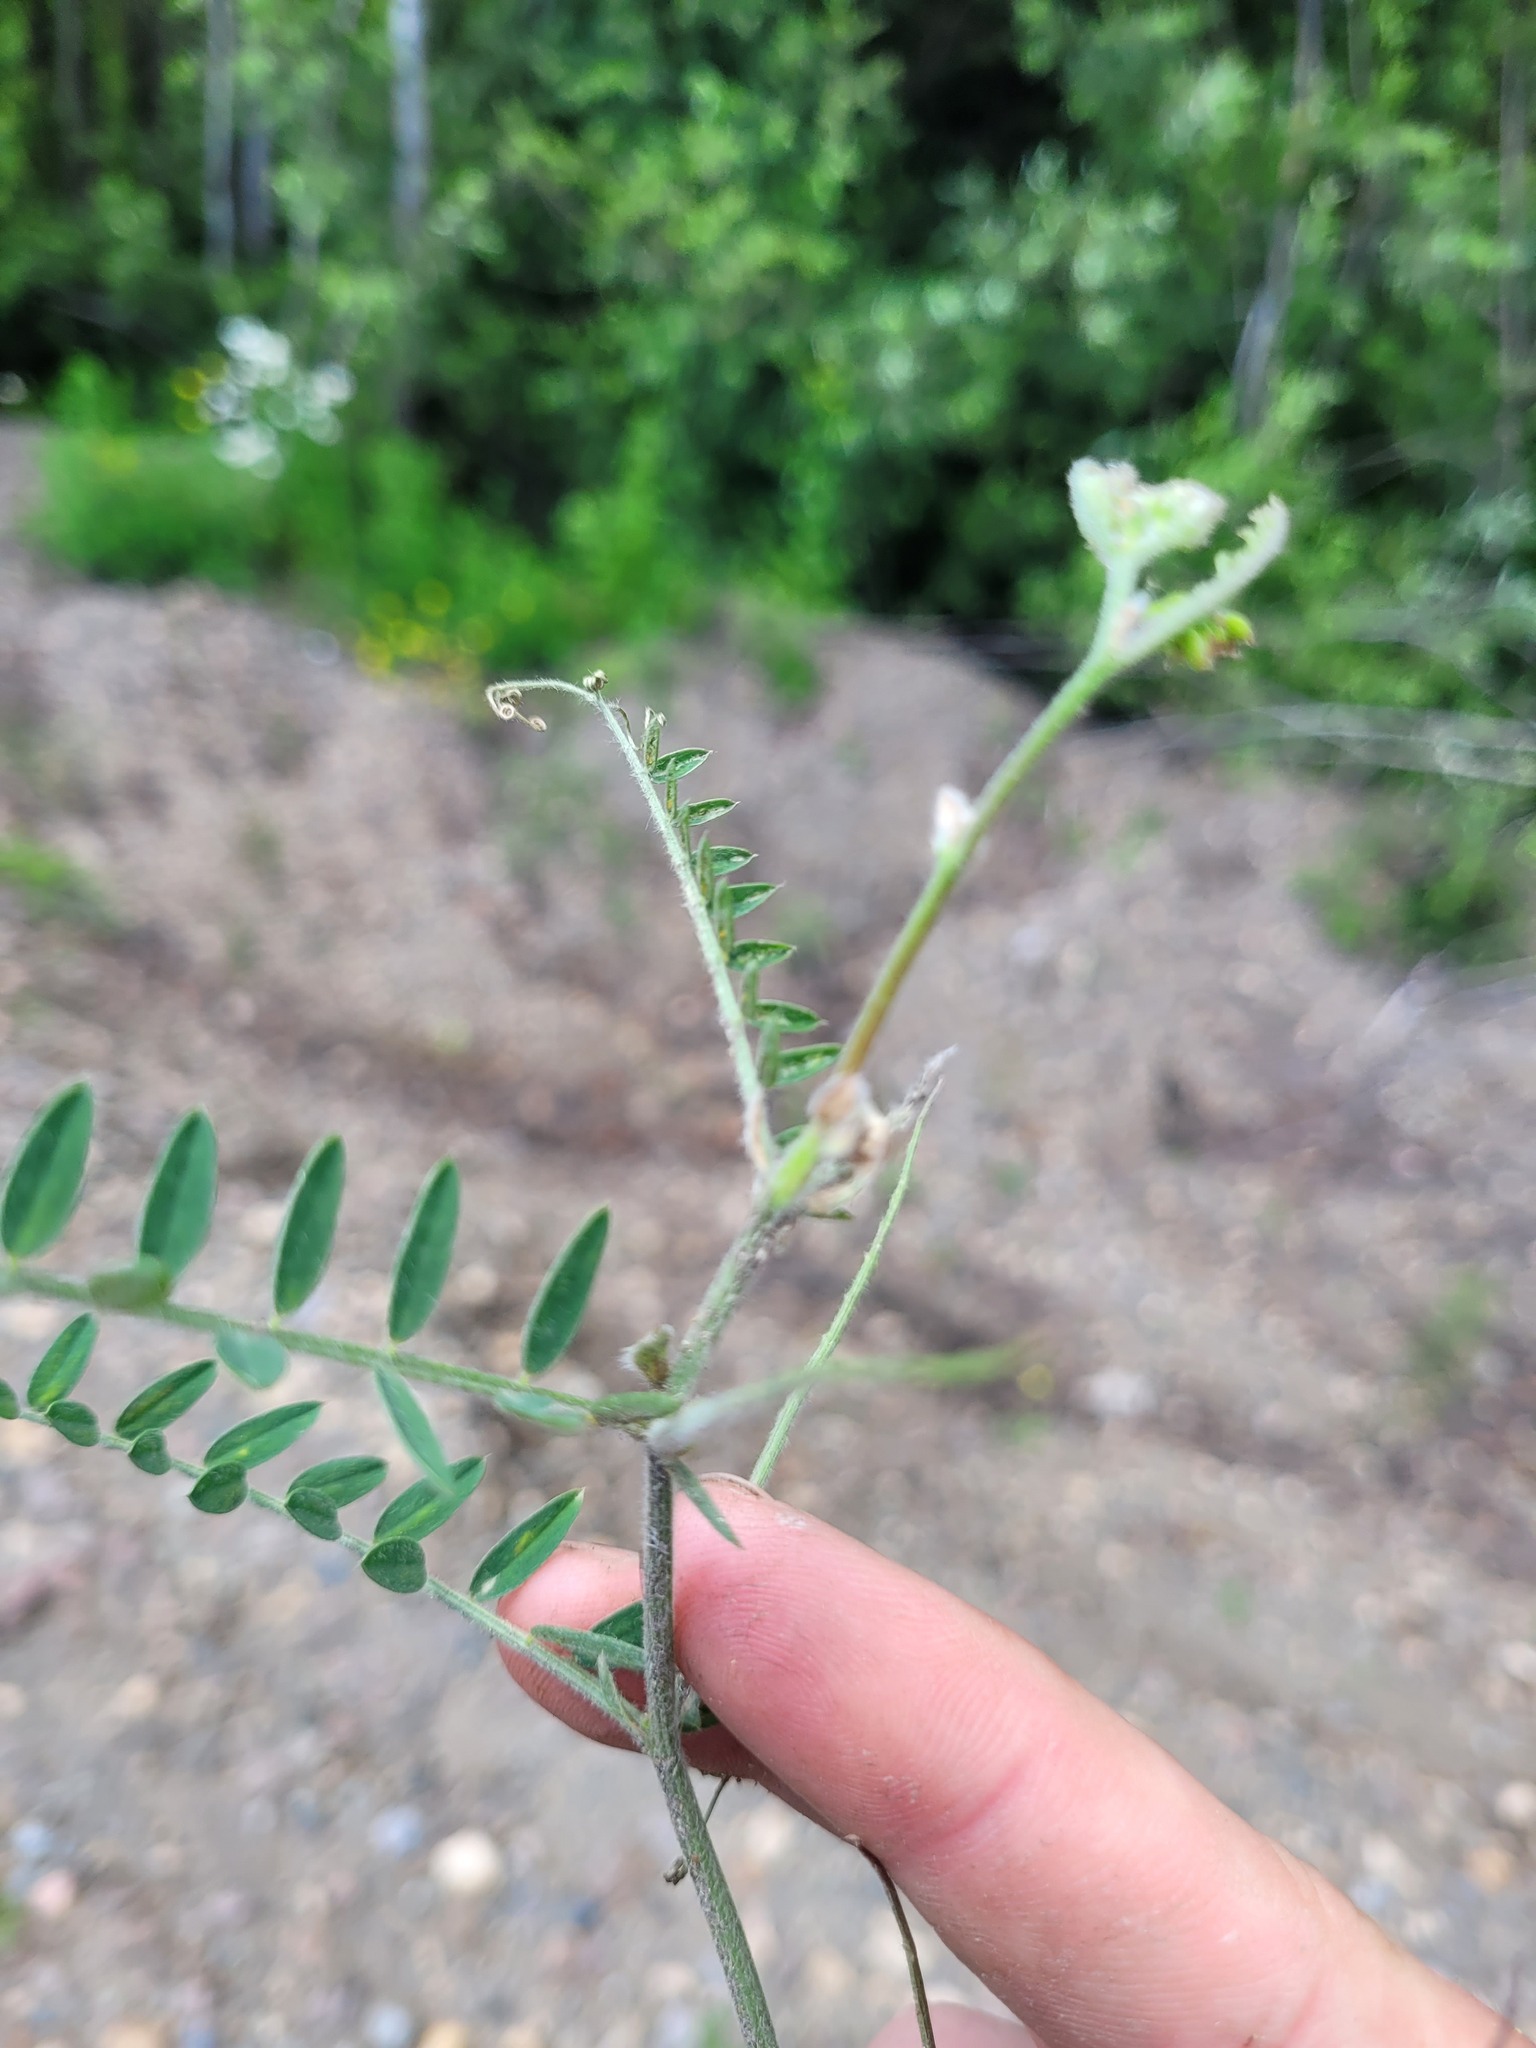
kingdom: Plantae
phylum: Tracheophyta
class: Magnoliopsida
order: Fabales
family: Fabaceae
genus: Vicia
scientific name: Vicia villosa
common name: Fodder vetch
